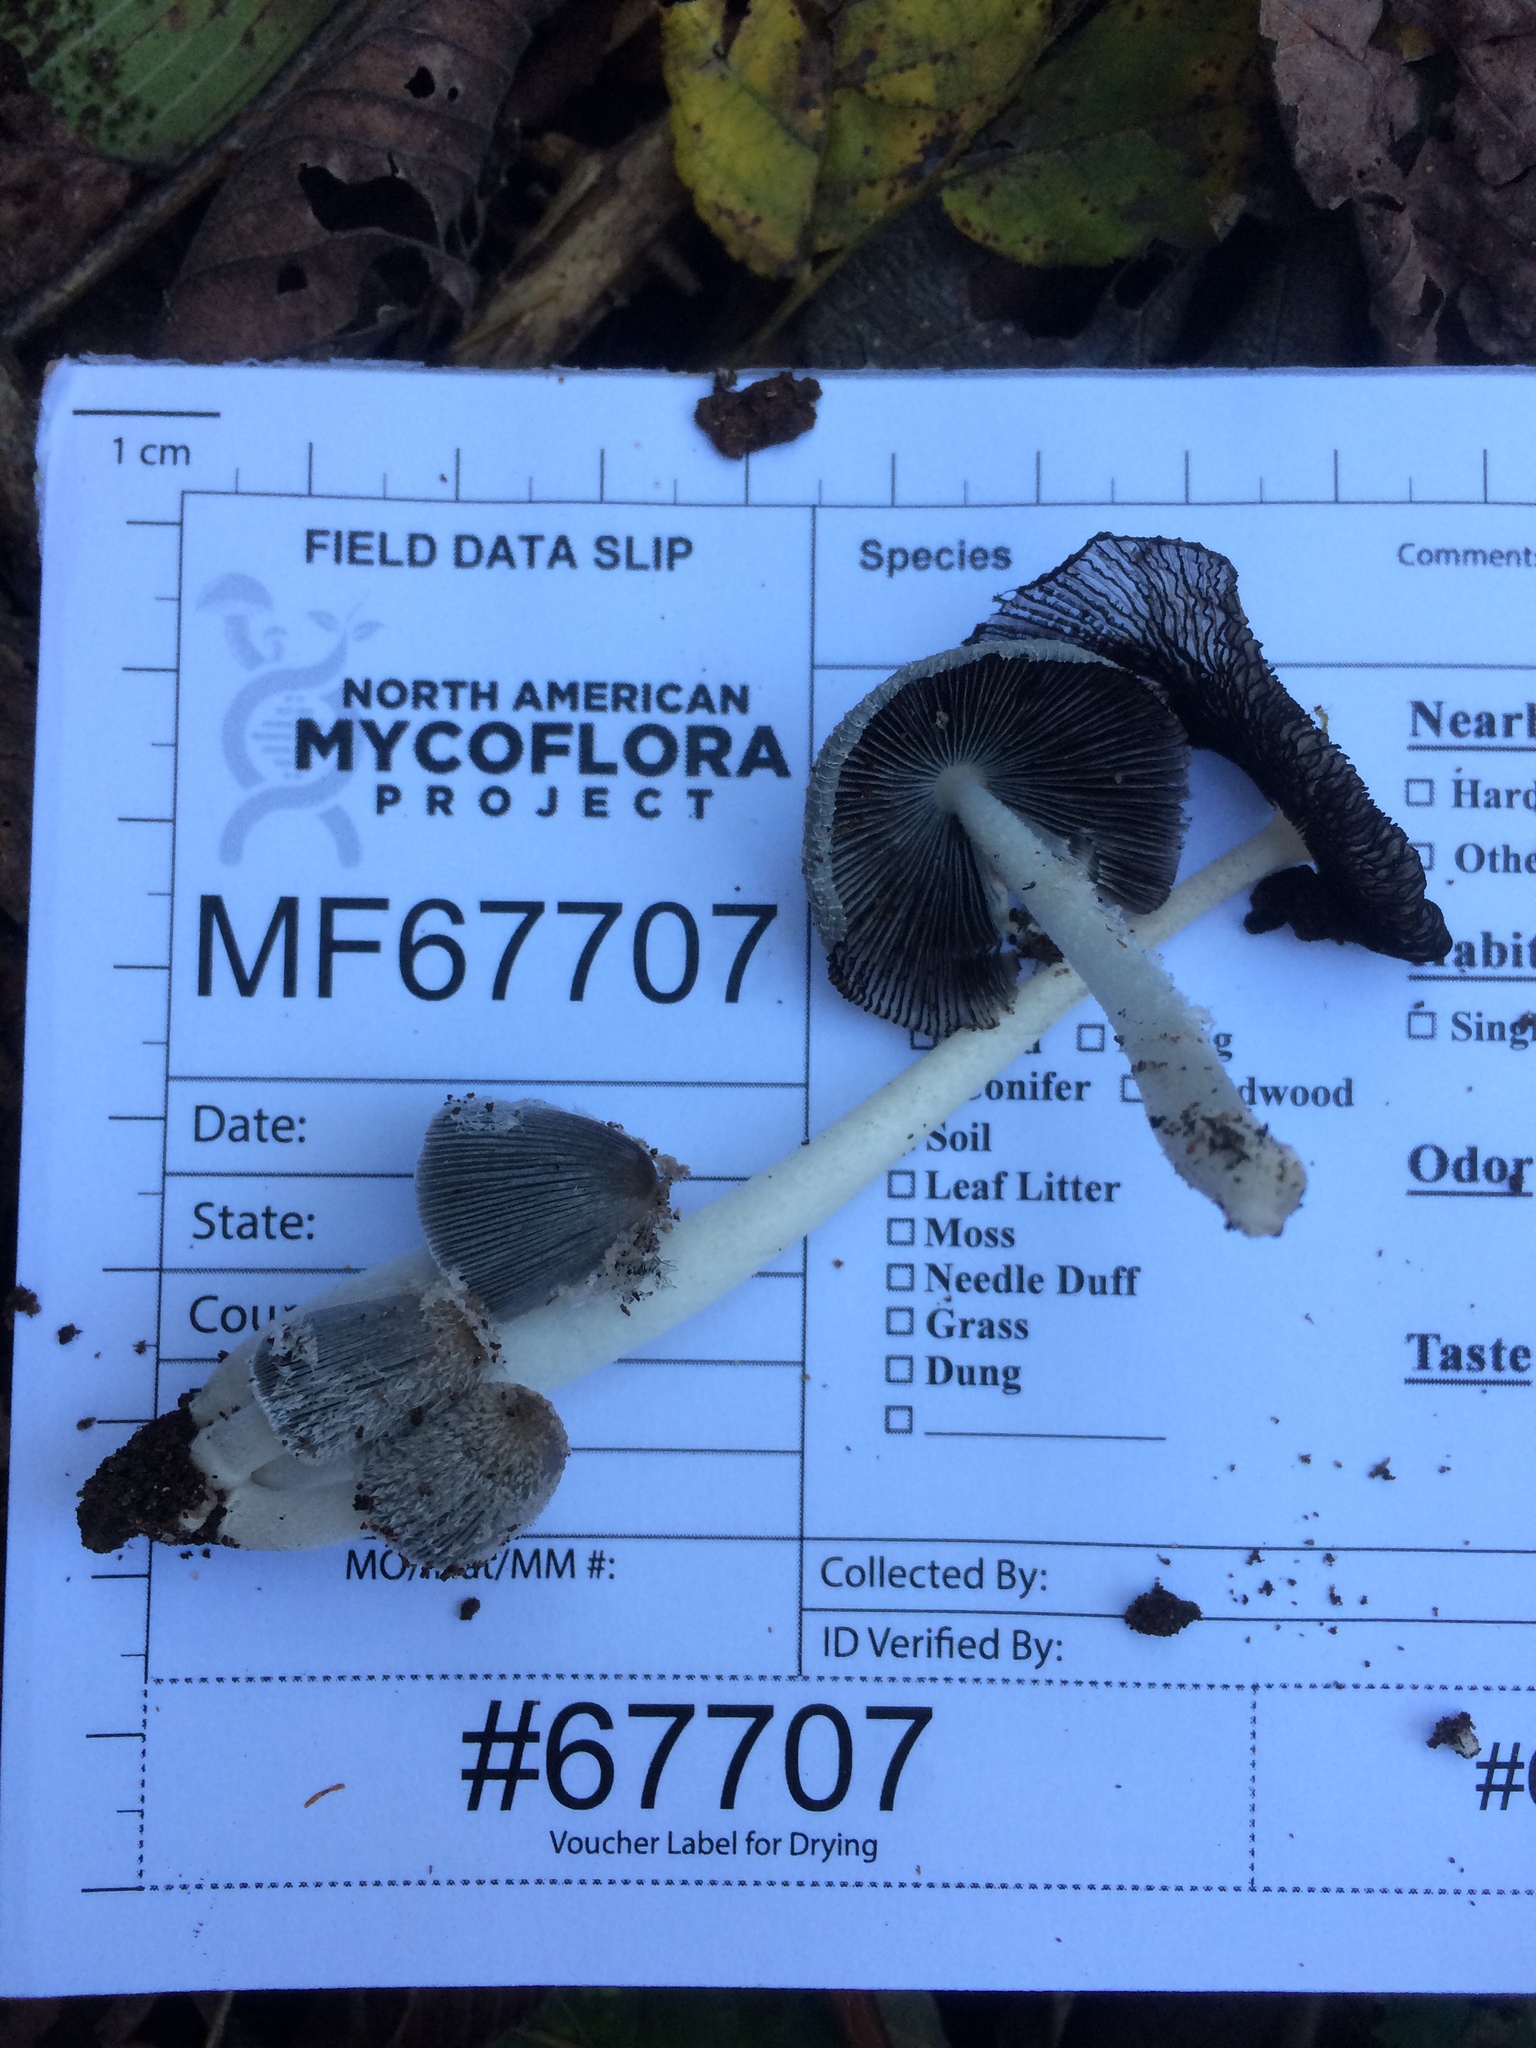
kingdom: Fungi
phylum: Basidiomycota
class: Agaricomycetes
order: Agaricales
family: Psathyrellaceae
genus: Coprinopsis
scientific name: Coprinopsis lagopus
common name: Hare'sfoot inkcap
